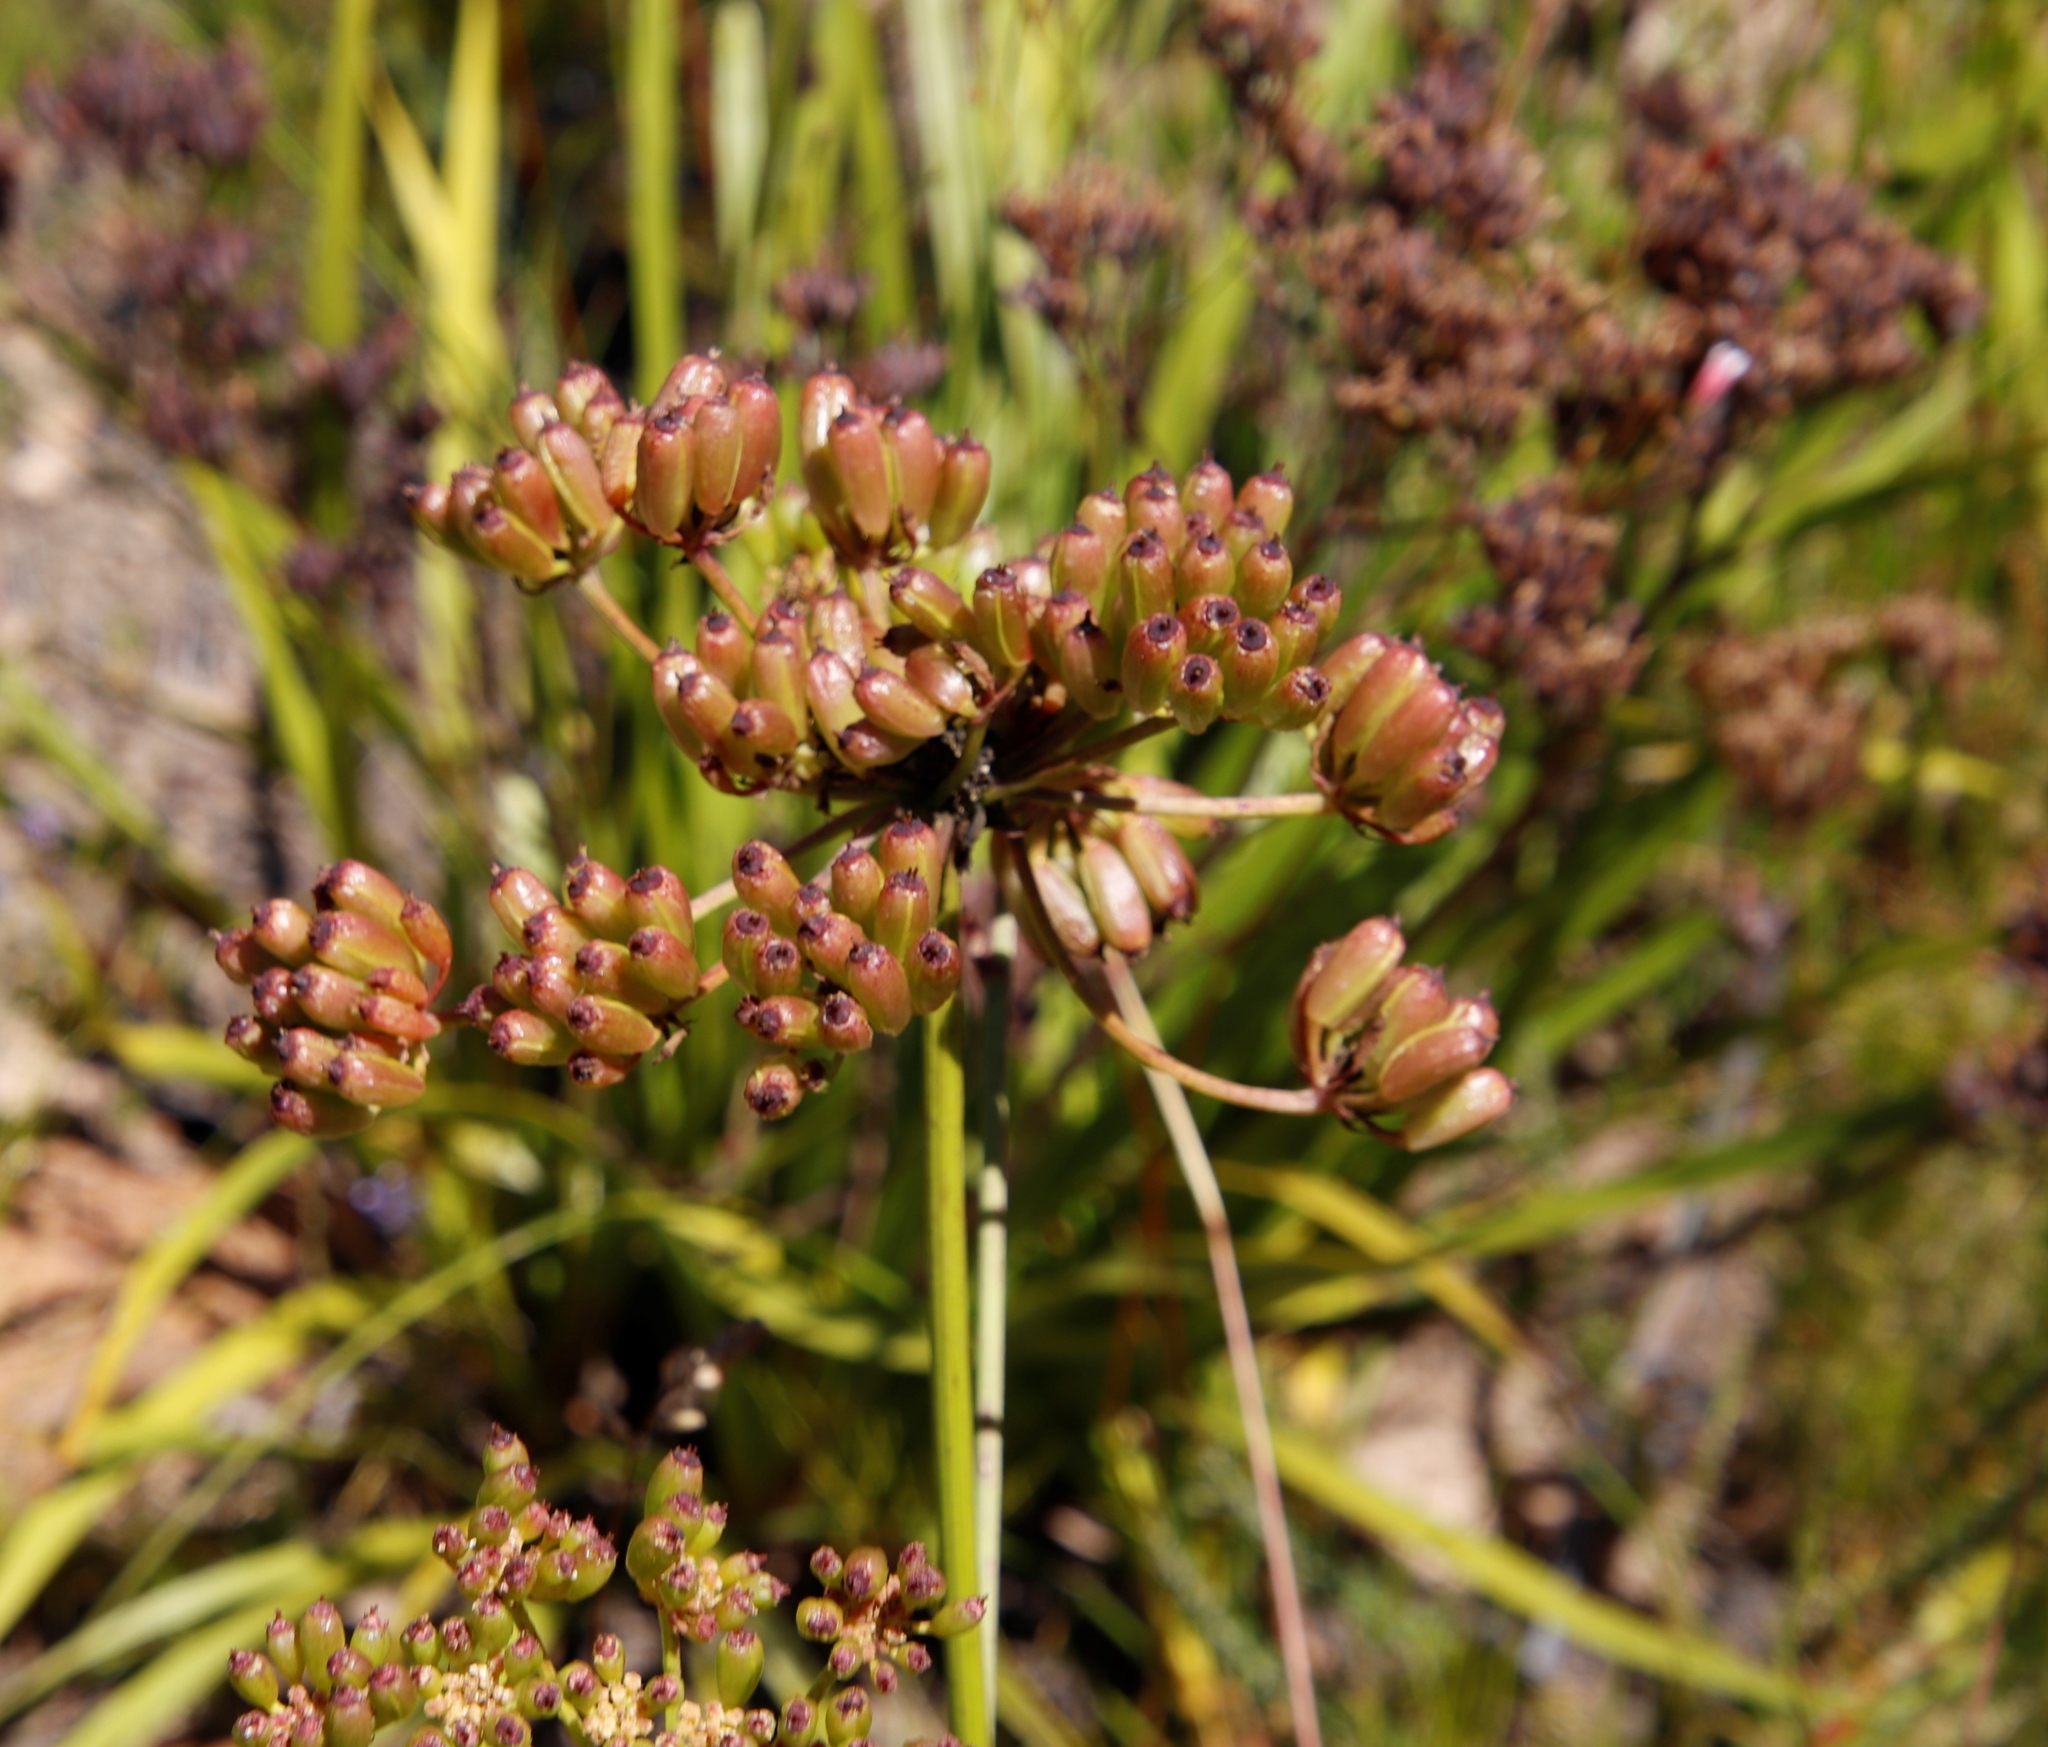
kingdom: Plantae
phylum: Tracheophyta
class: Magnoliopsida
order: Apiales
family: Apiaceae
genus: Nanobubon
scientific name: Nanobubon strictum
